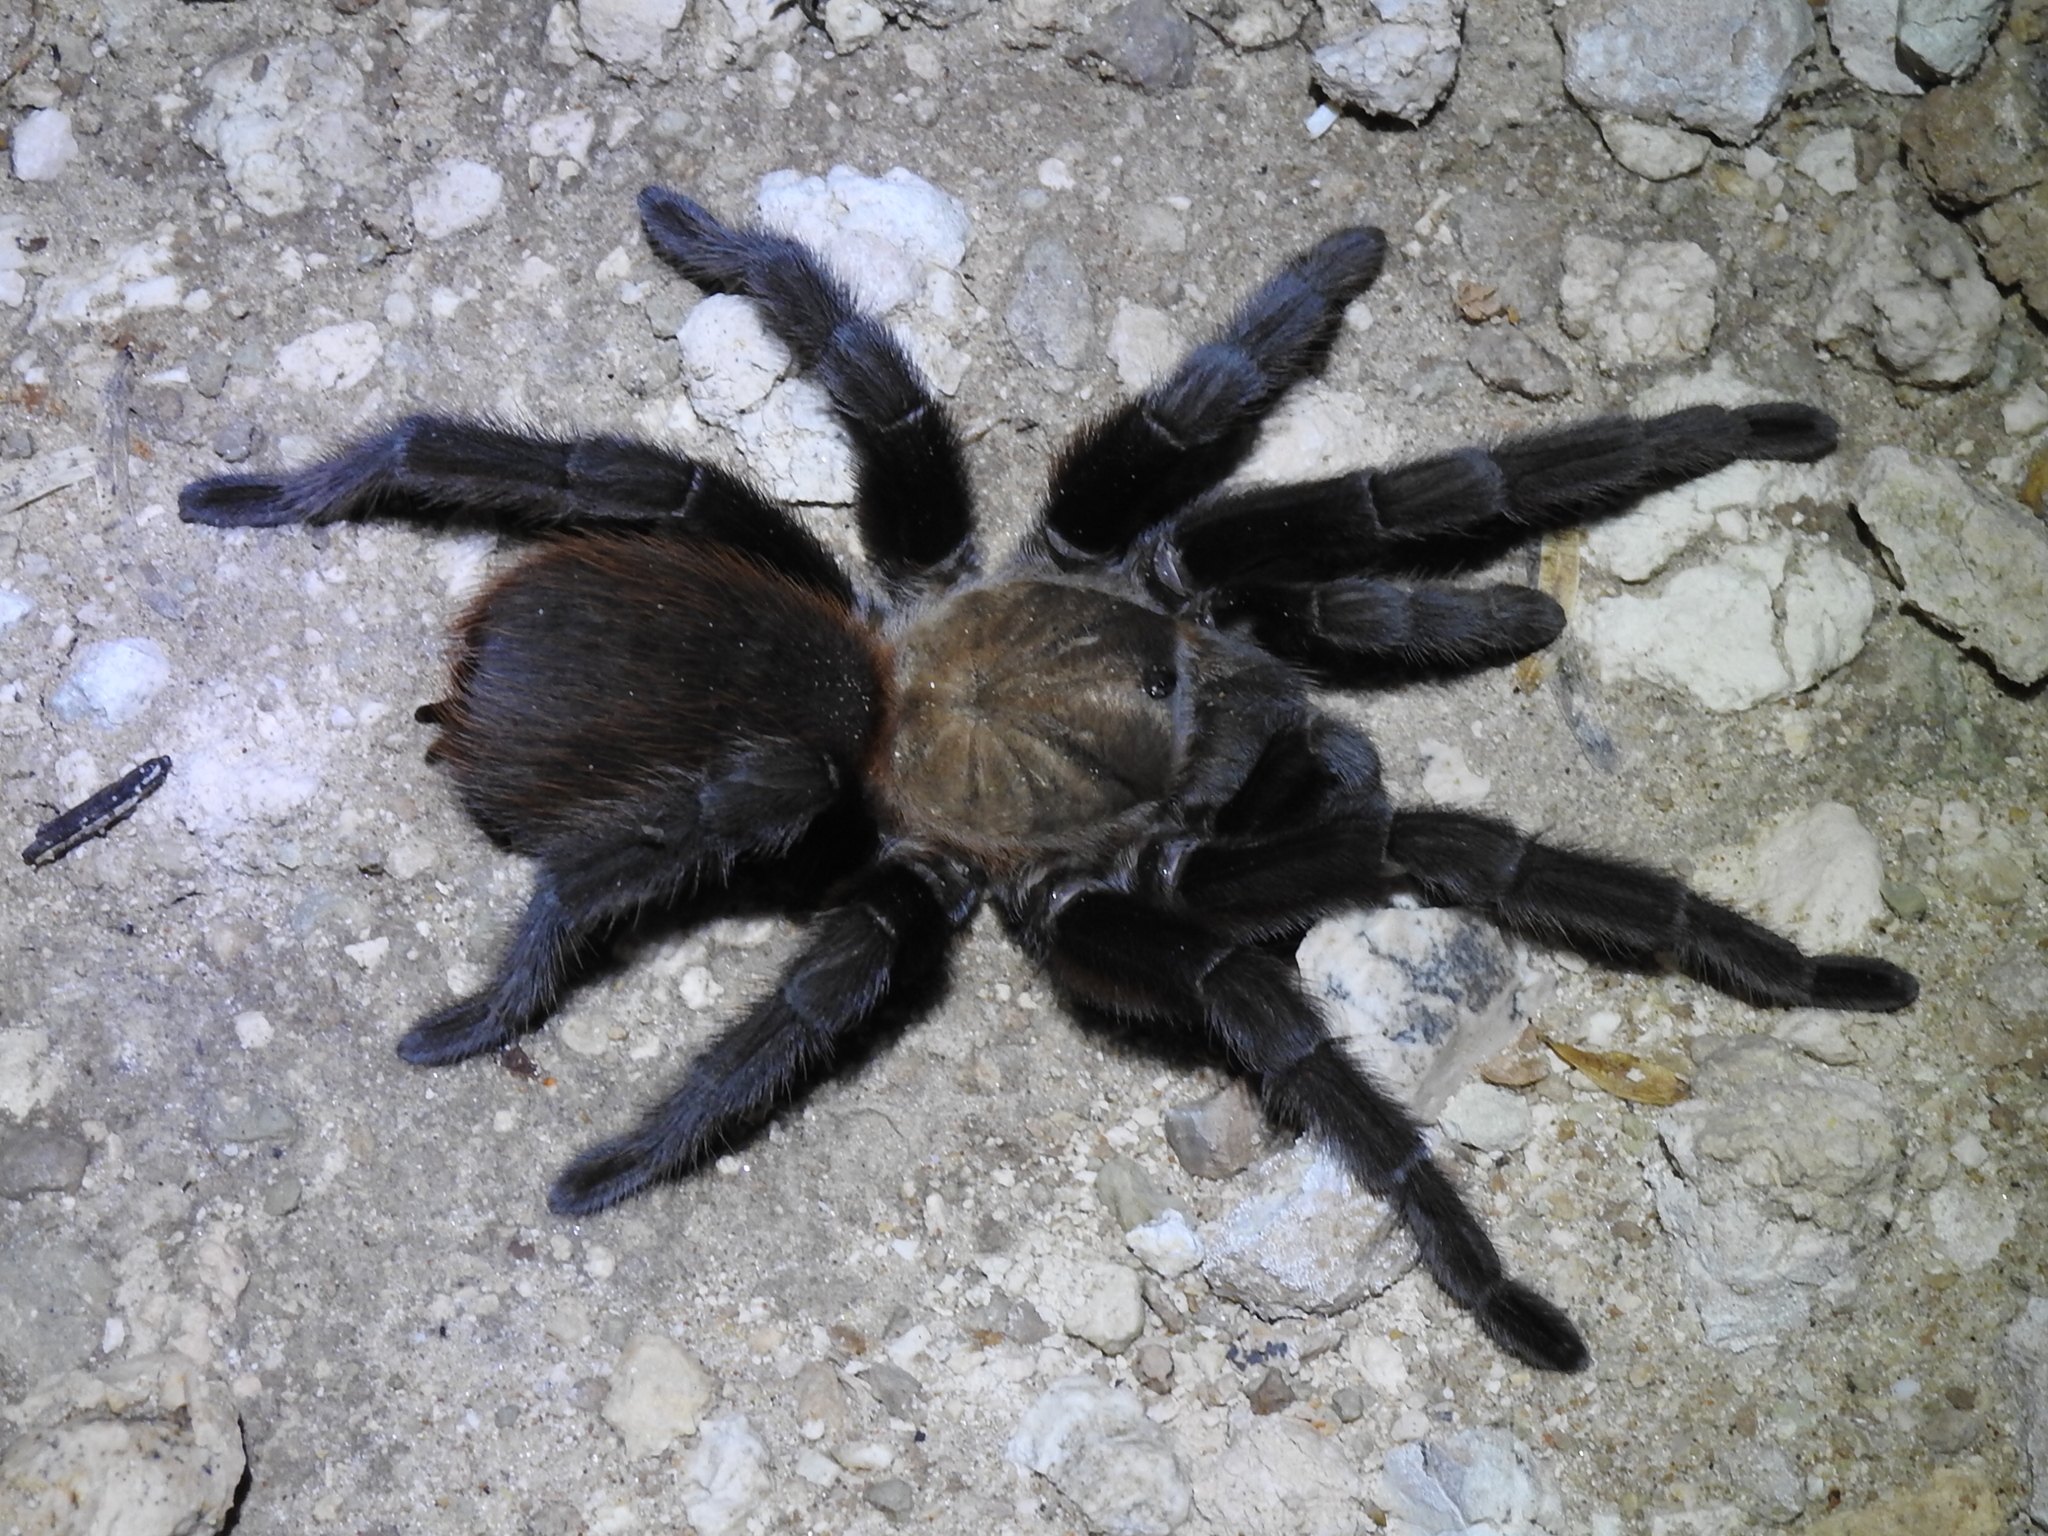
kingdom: Animalia
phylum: Arthropoda
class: Arachnida
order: Araneae
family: Theraphosidae
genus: Aphonopelma
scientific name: Aphonopelma anax
